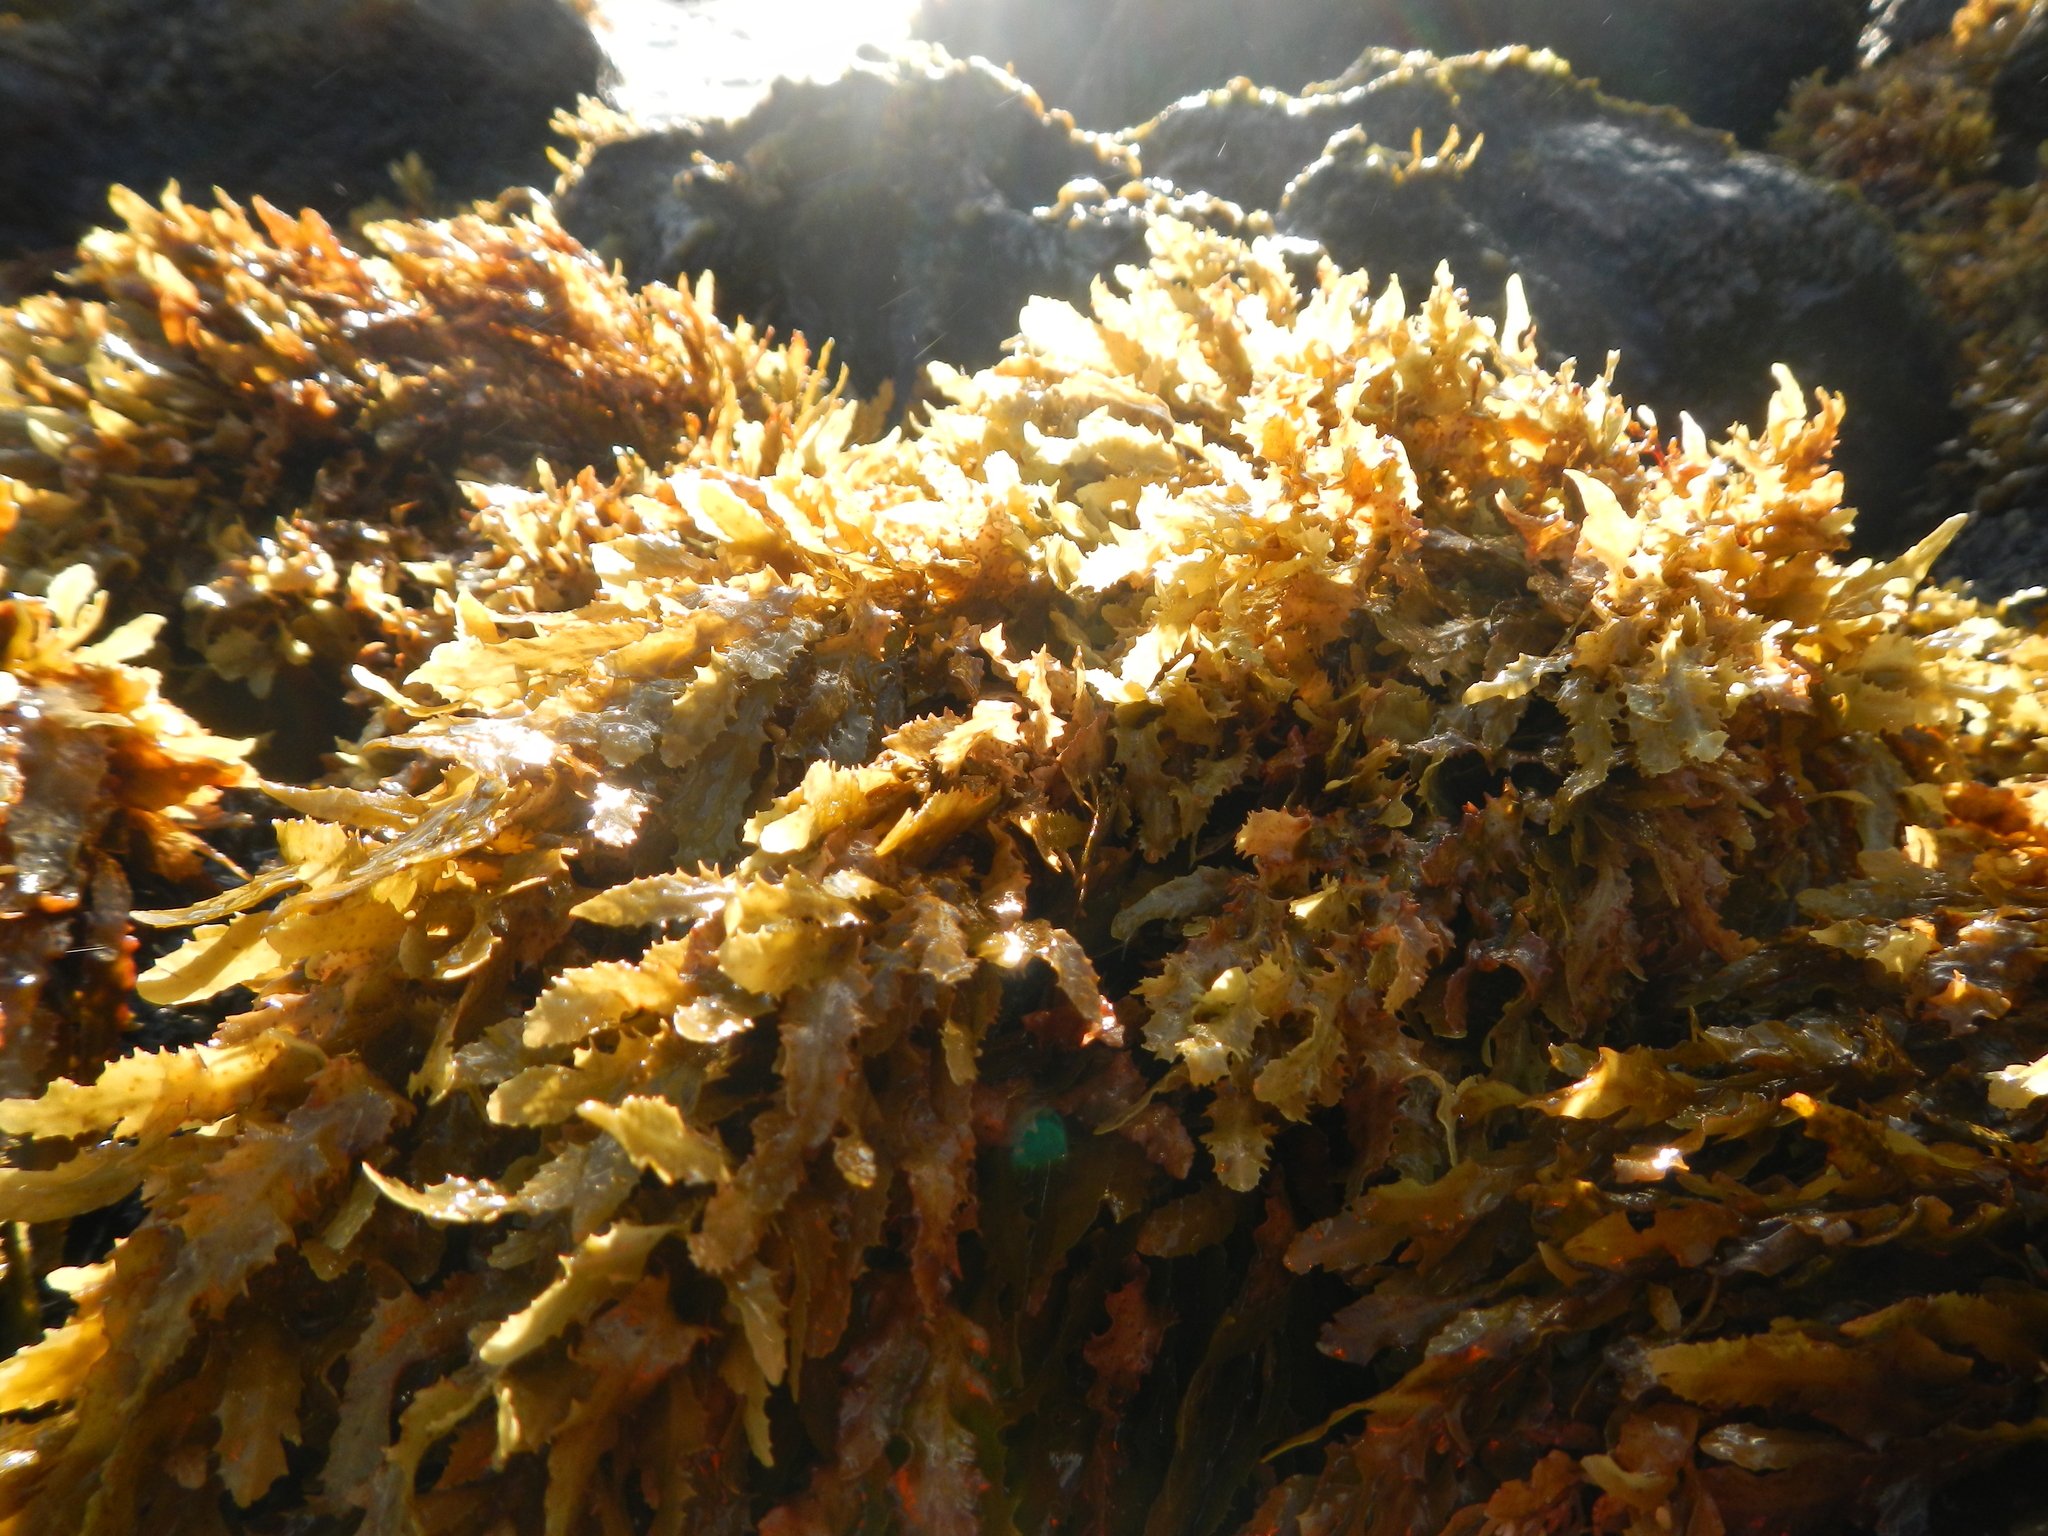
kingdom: Chromista
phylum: Ochrophyta
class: Phaeophyceae
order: Fucales
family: Sargassaceae
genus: Sargassum
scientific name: Sargassum obtusifolium
